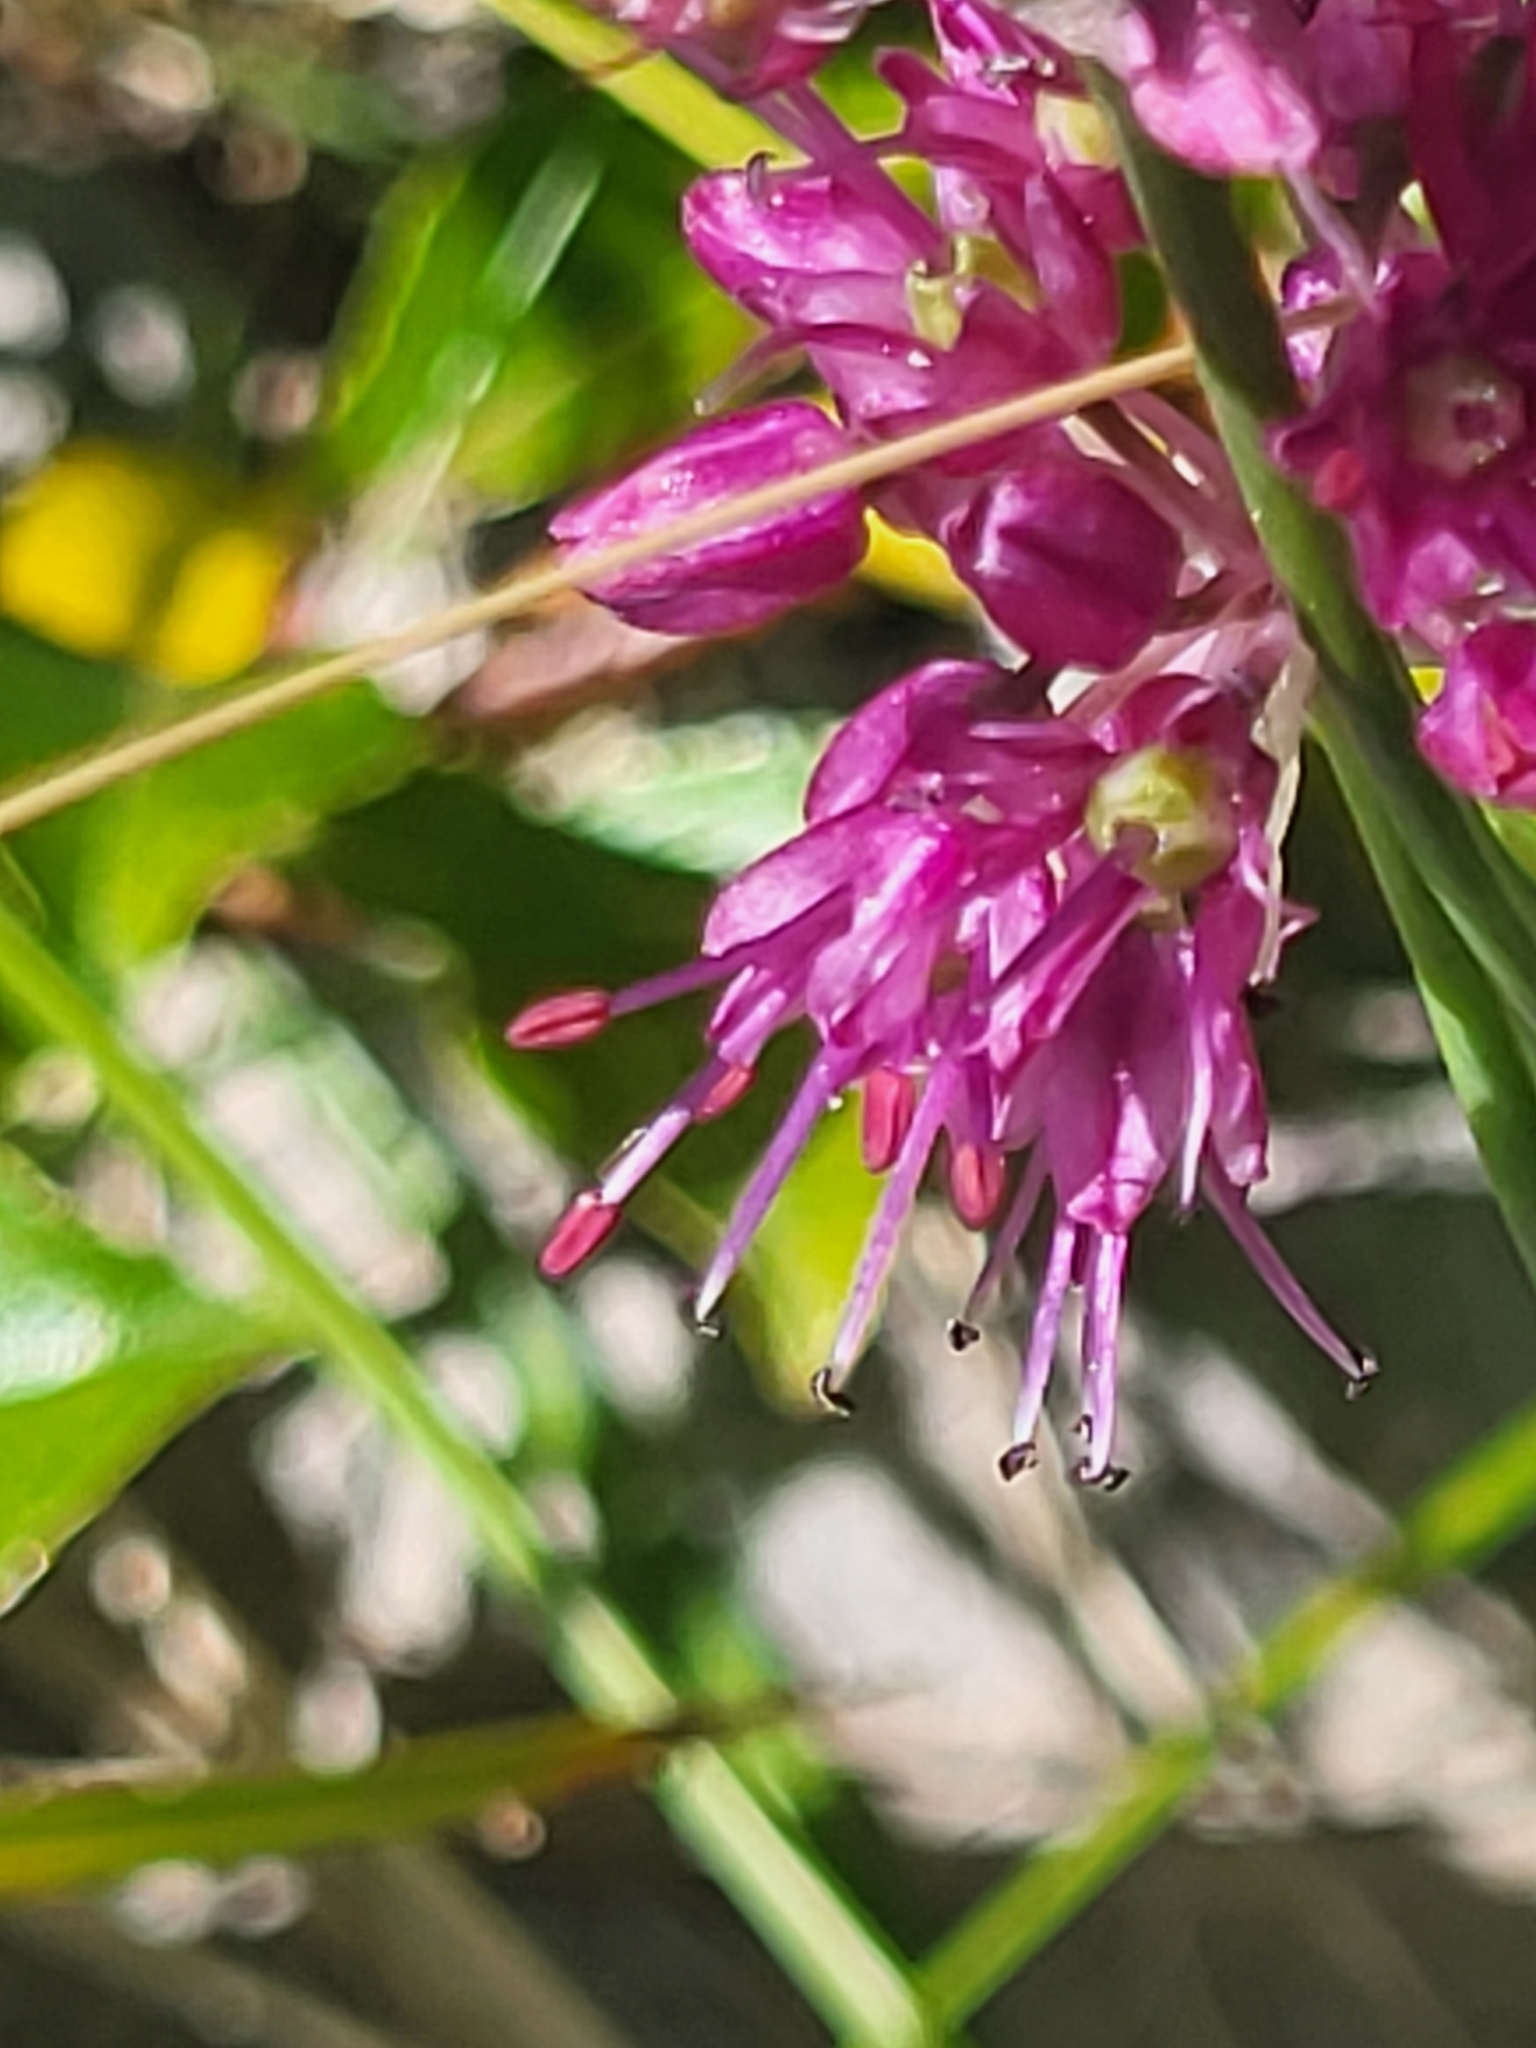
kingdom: Plantae
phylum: Tracheophyta
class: Liliopsida
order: Asparagales
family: Amaryllidaceae
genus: Allium
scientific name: Allium kermesinum
